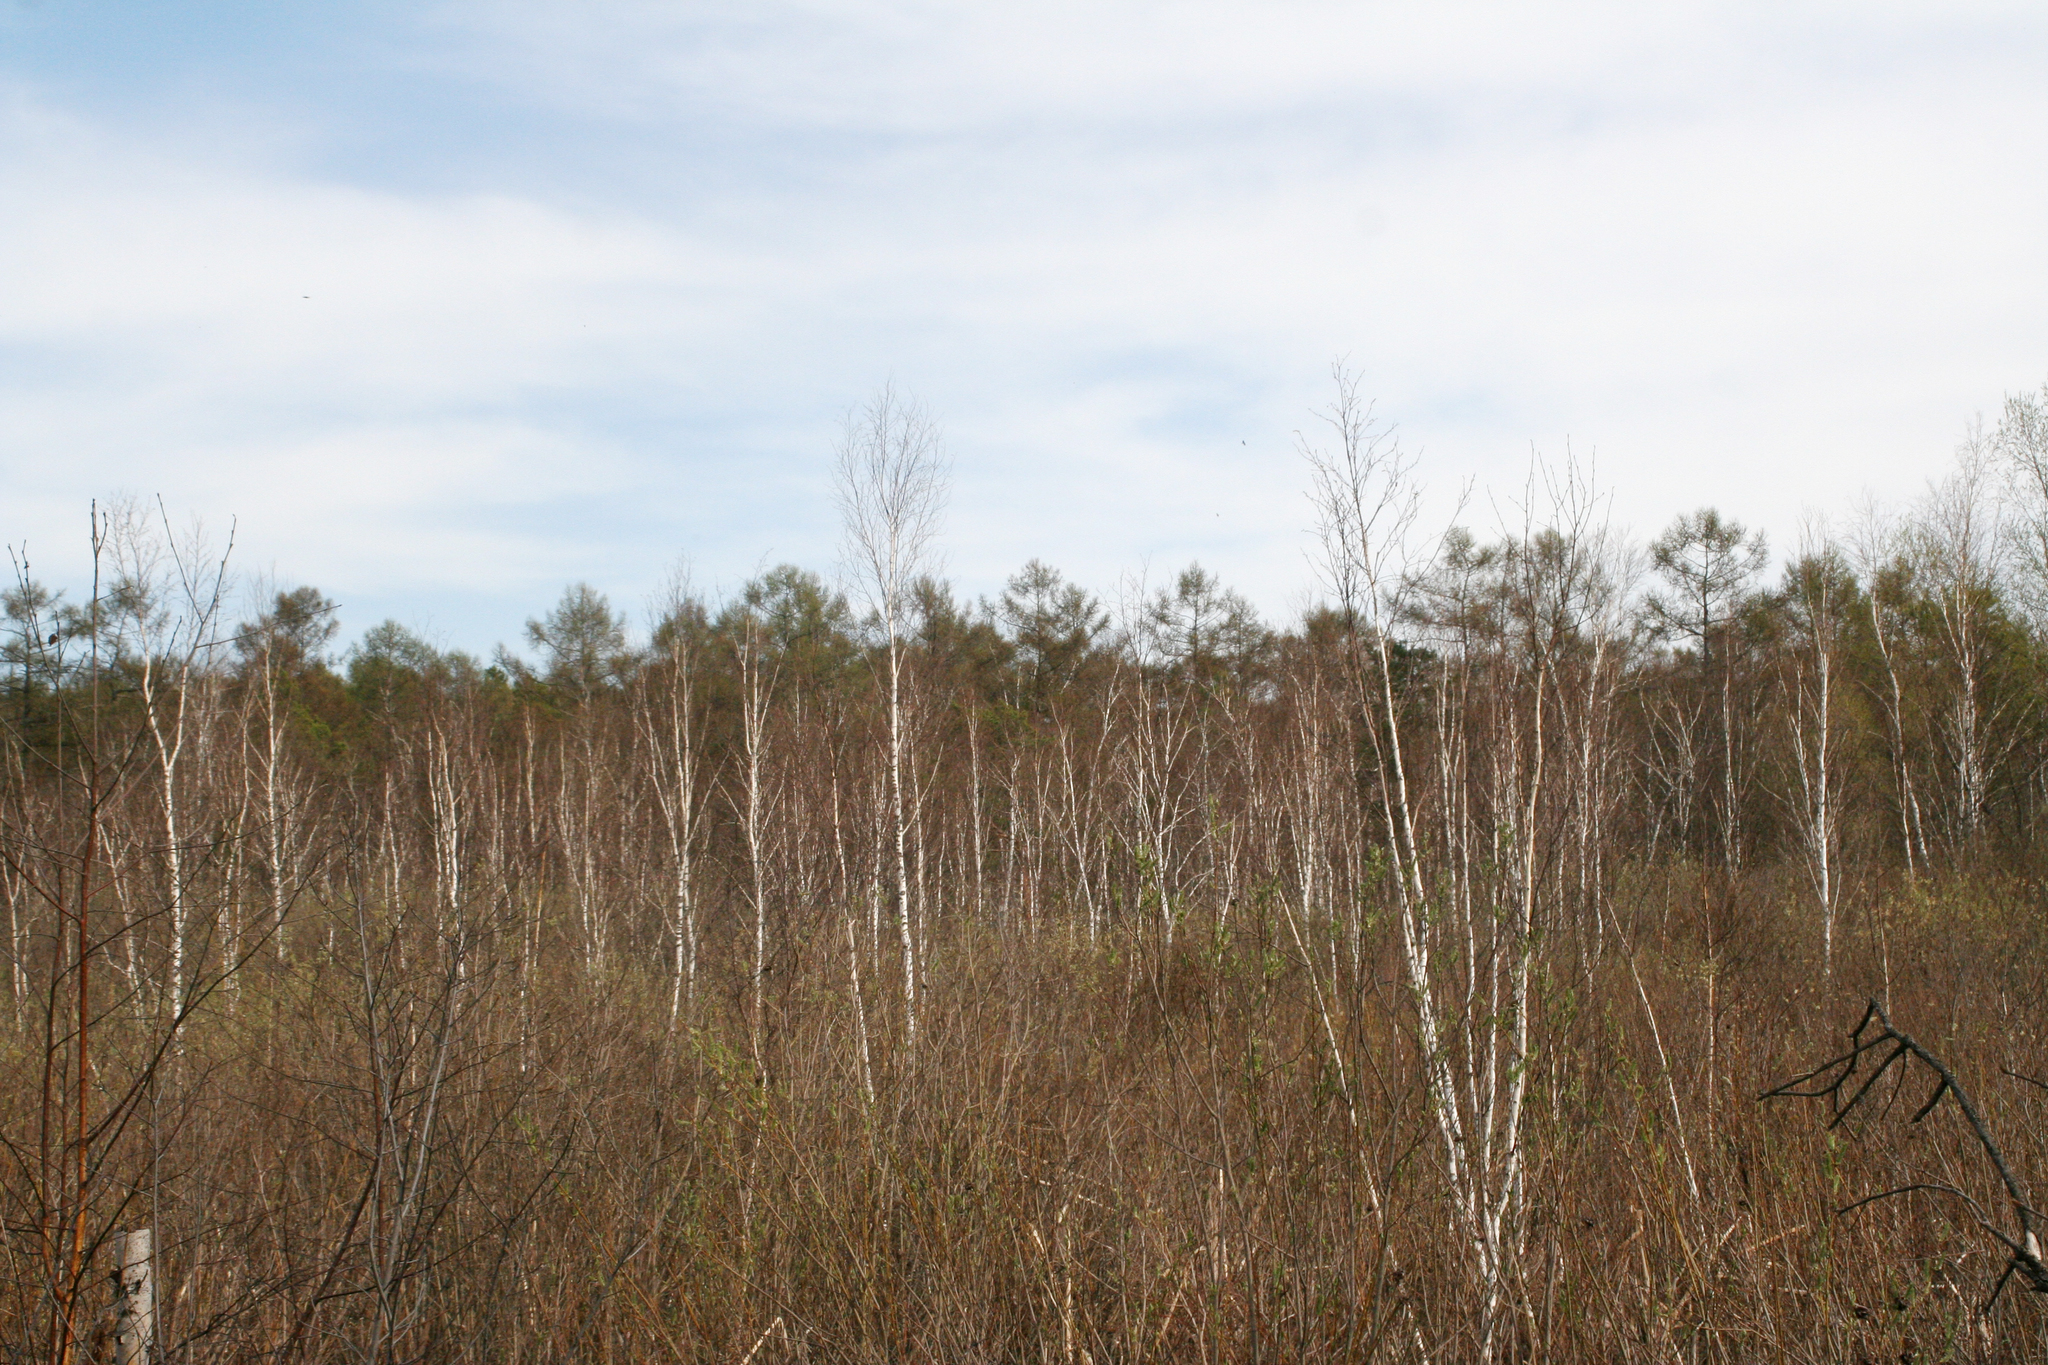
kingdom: Plantae
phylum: Tracheophyta
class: Pinopsida
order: Pinales
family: Pinaceae
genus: Larix
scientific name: Larix sibirica
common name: Siberian larch
